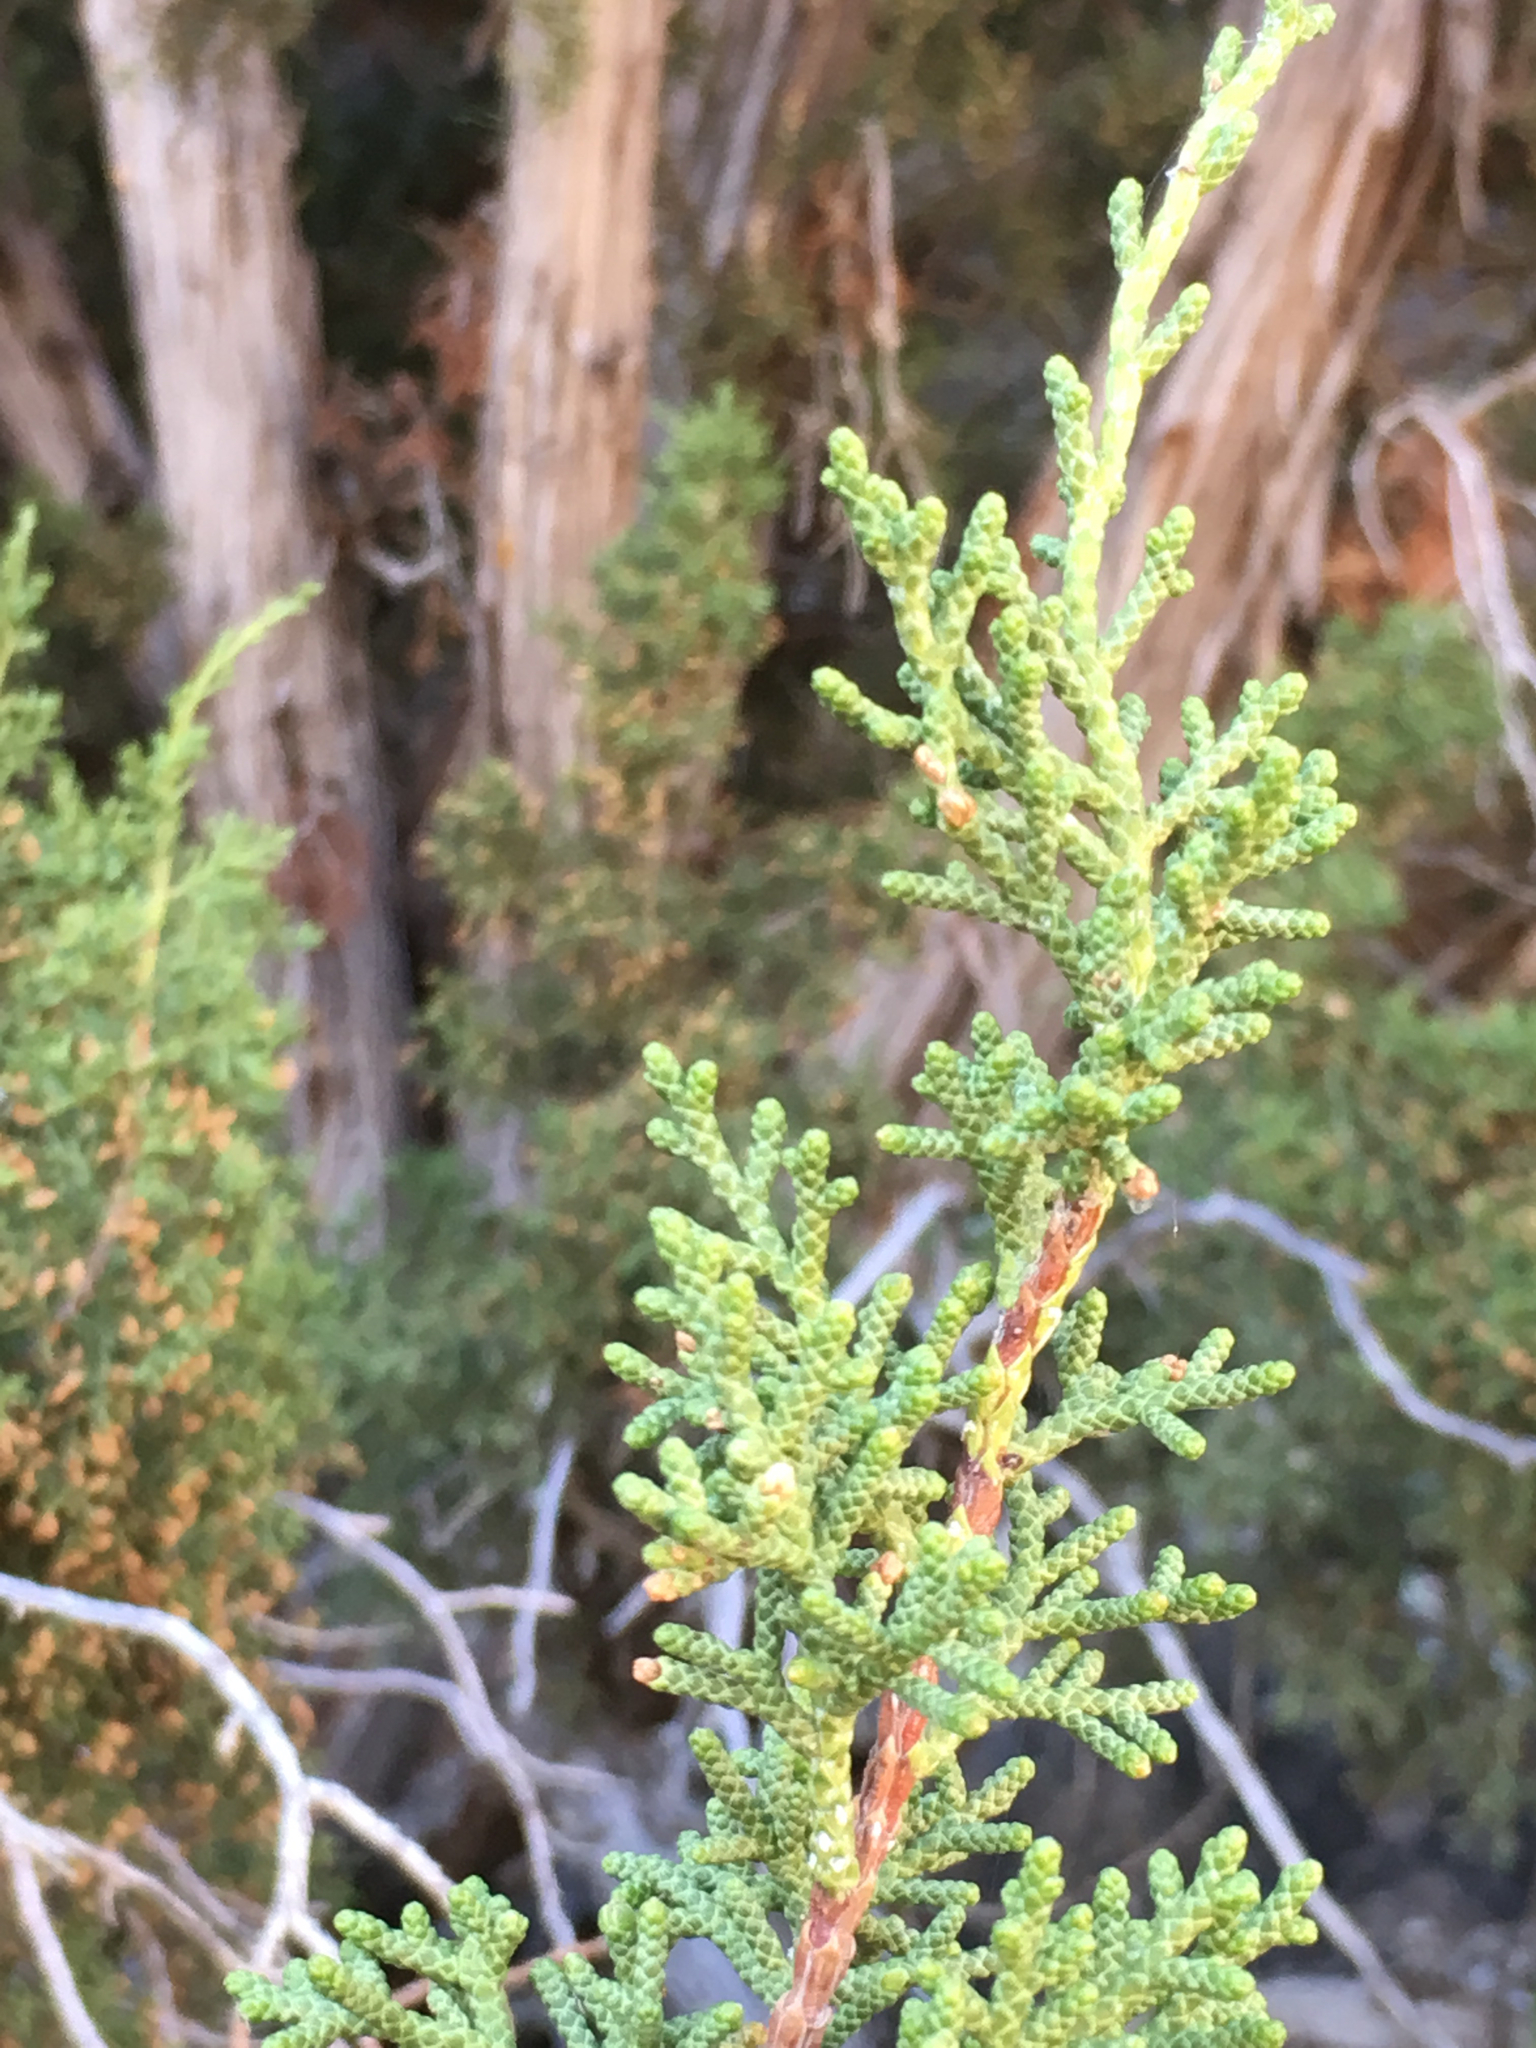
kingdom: Plantae
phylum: Tracheophyta
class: Pinopsida
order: Pinales
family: Cupressaceae
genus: Juniperus
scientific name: Juniperus californica
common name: California juniper
